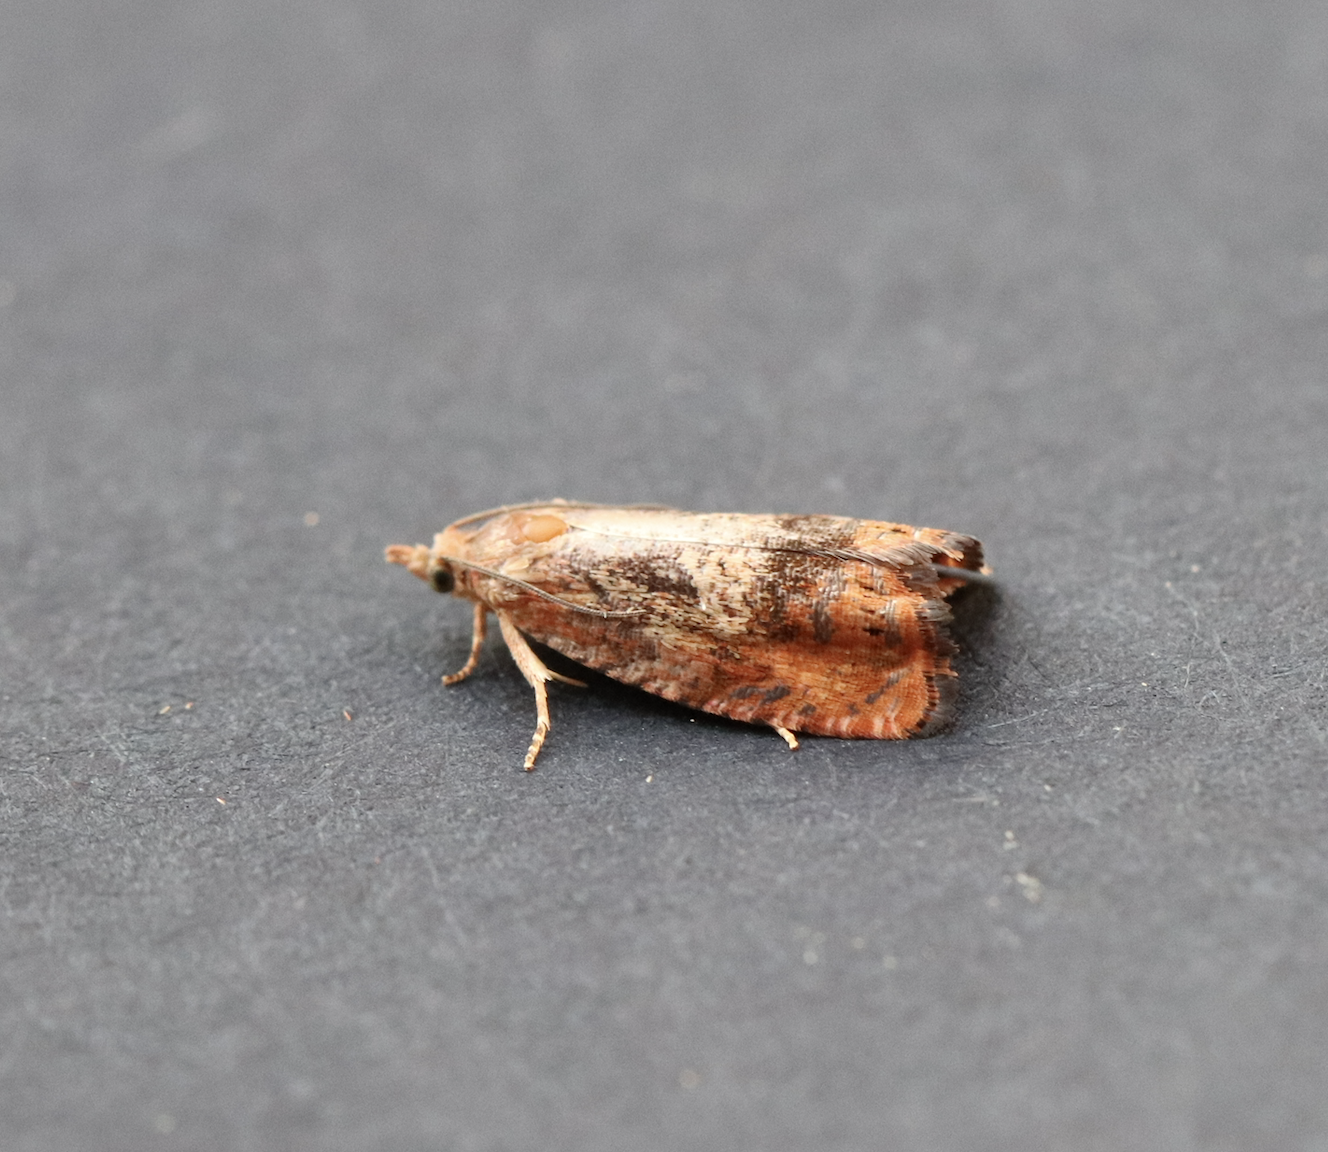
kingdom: Animalia
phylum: Arthropoda
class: Insecta
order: Lepidoptera
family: Tortricidae
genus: Cydia
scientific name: Cydia amplana
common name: Vagrant piercer
